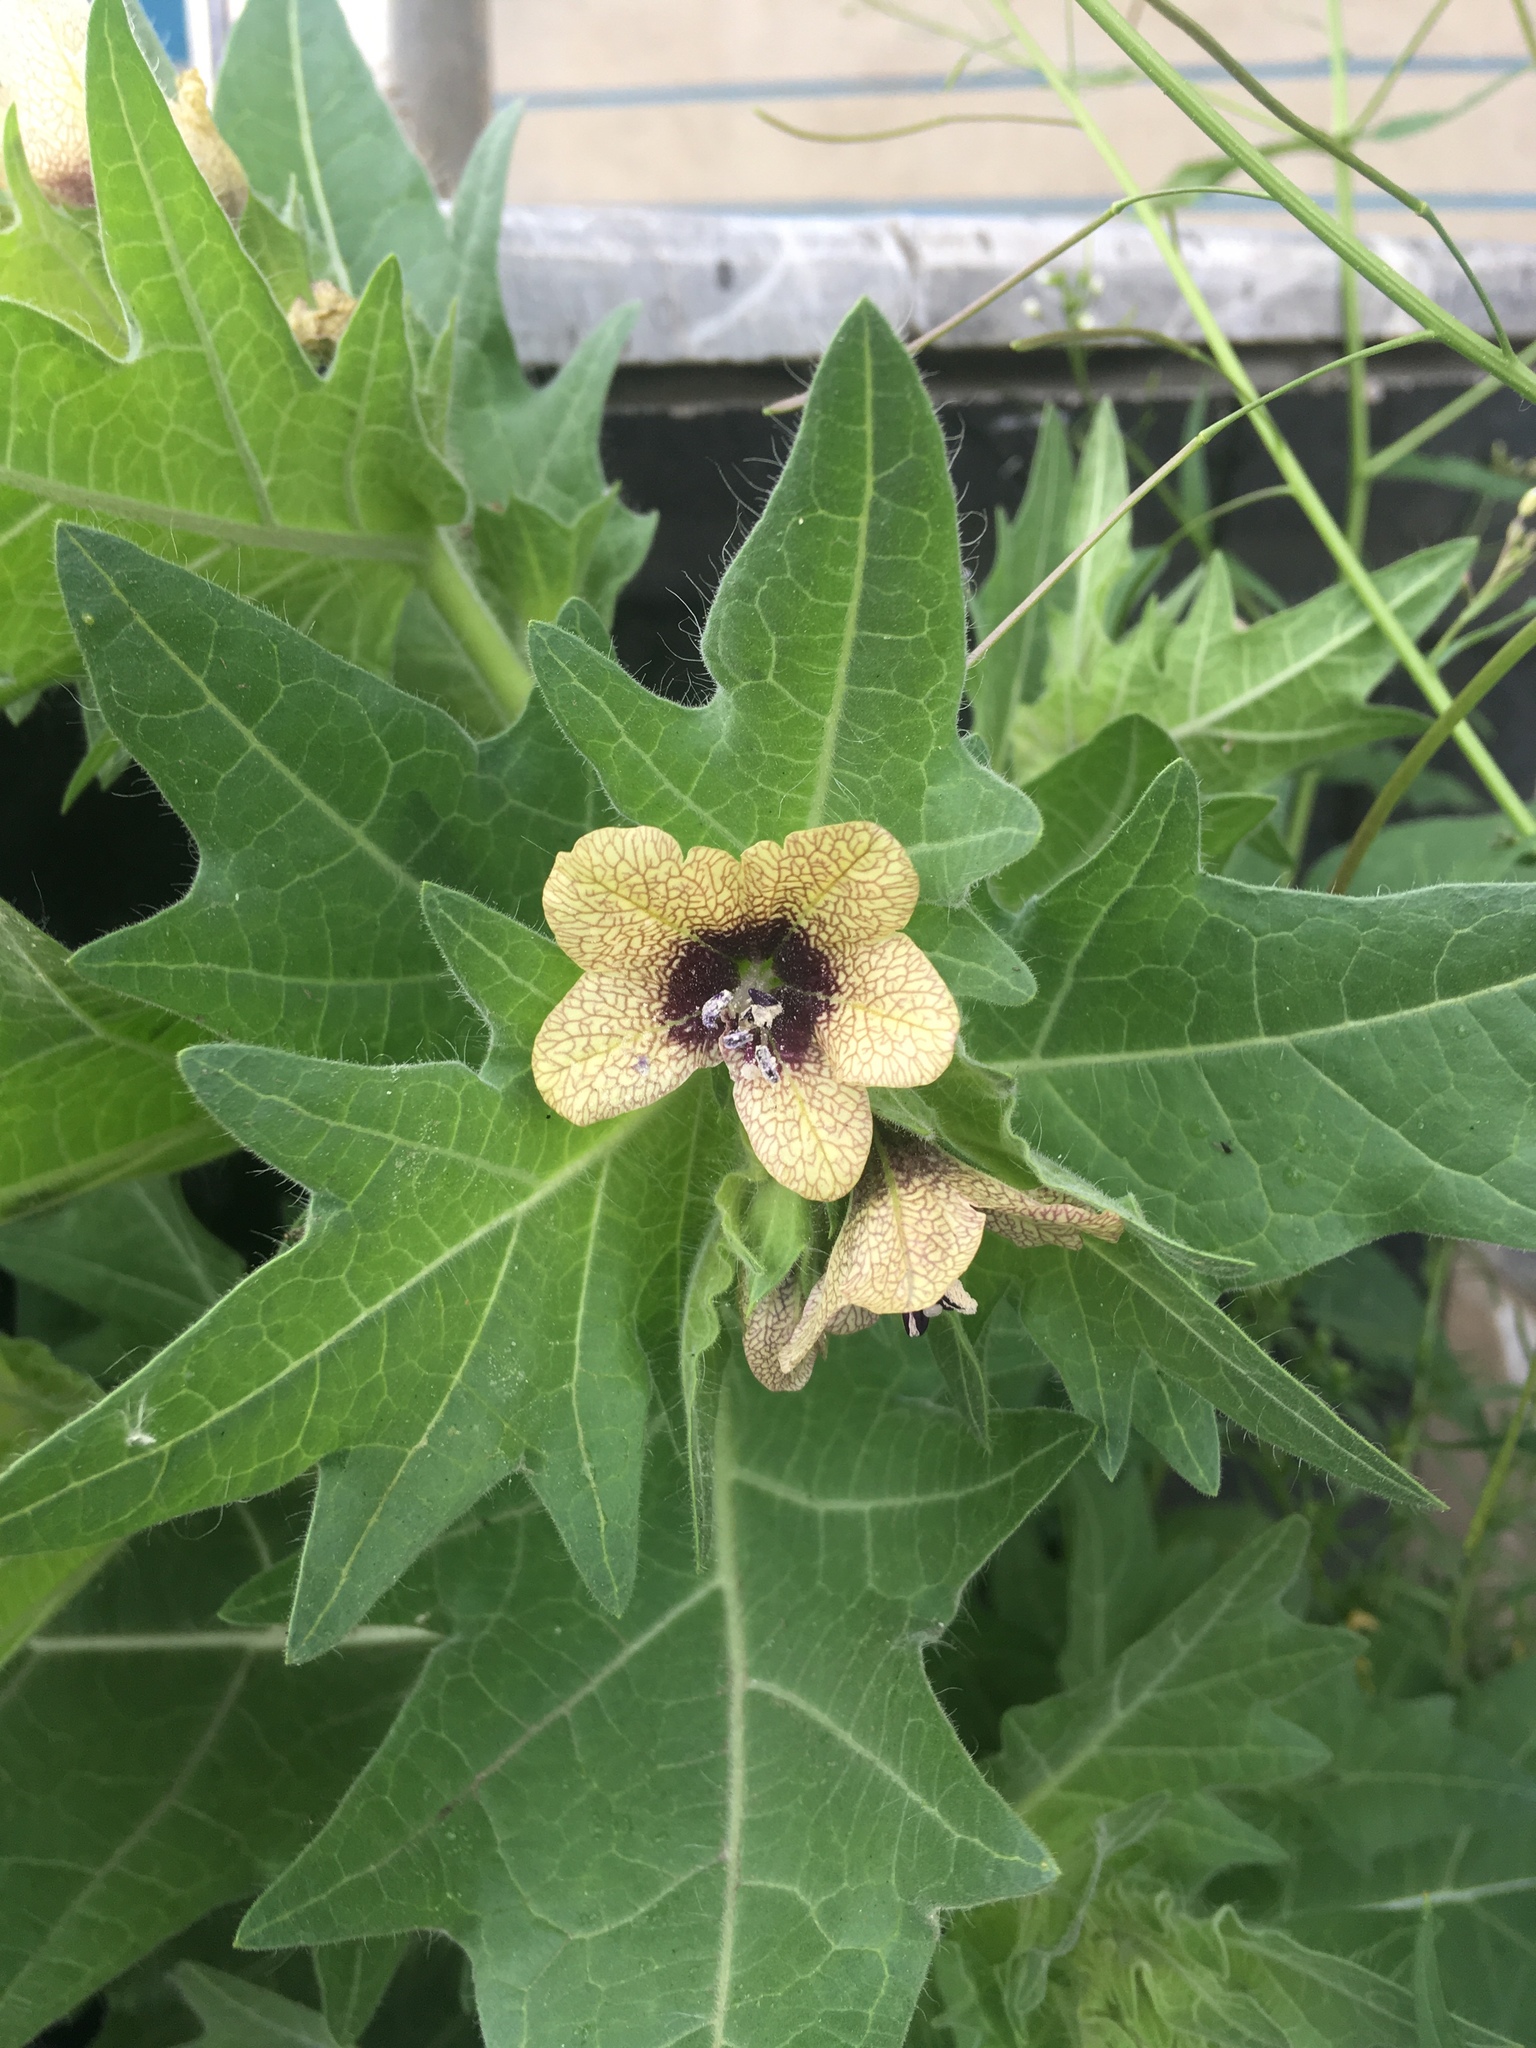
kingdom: Plantae
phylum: Tracheophyta
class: Magnoliopsida
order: Solanales
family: Solanaceae
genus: Hyoscyamus
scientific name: Hyoscyamus niger
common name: Henbane
